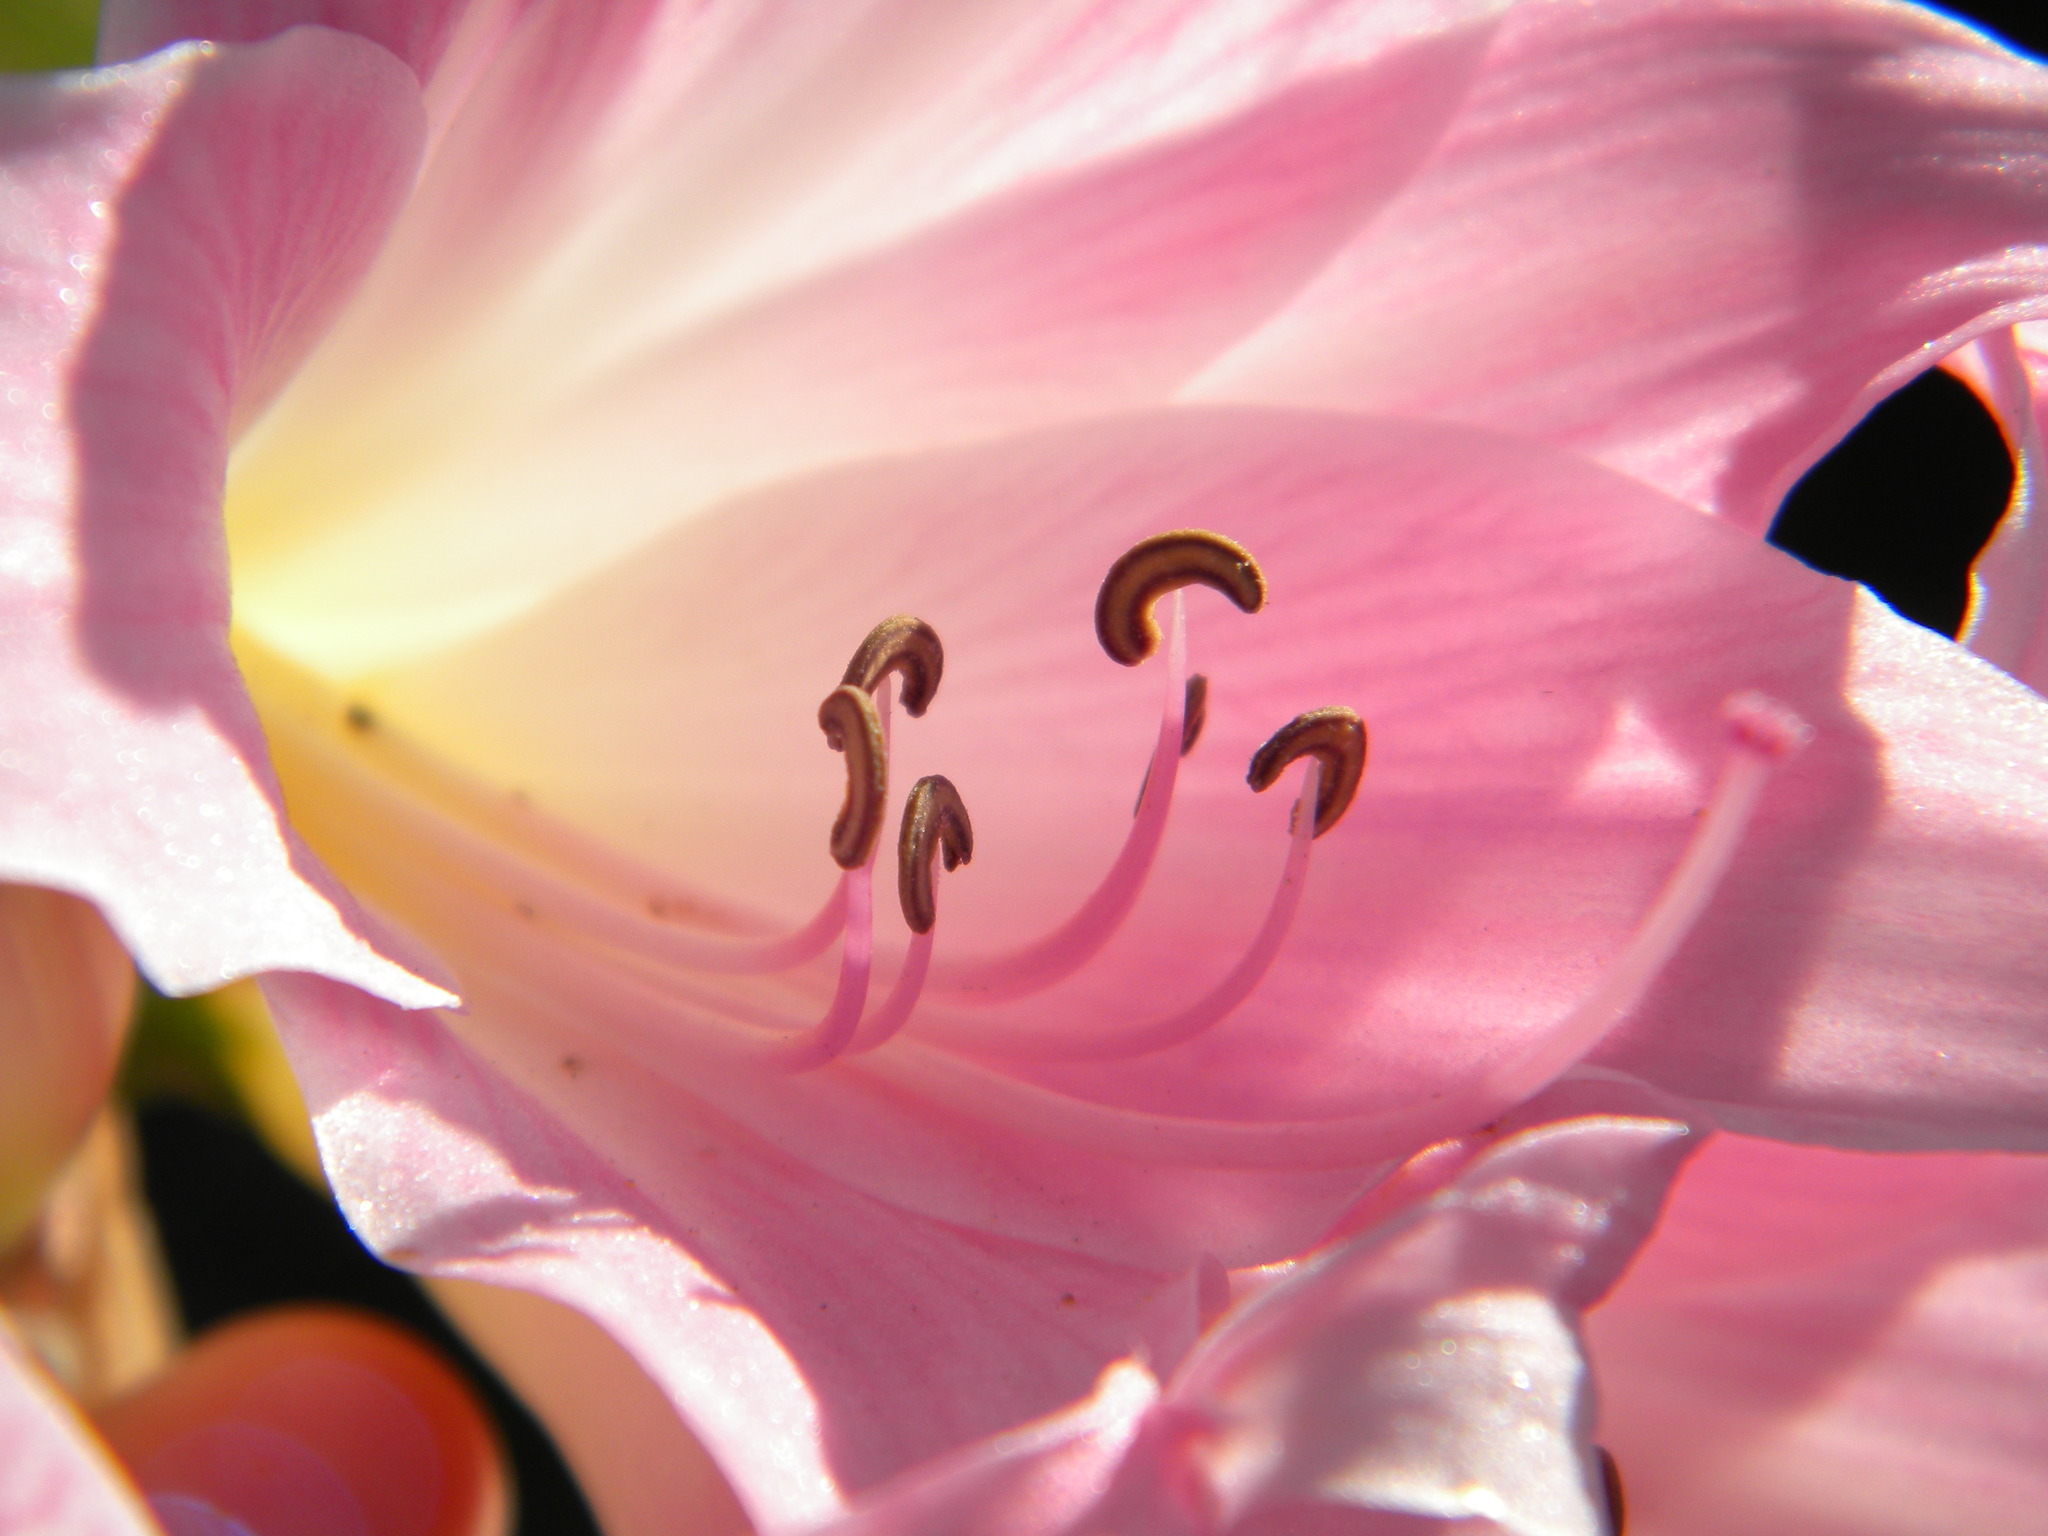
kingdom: Plantae
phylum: Tracheophyta
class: Liliopsida
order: Asparagales
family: Amaryllidaceae
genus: Amaryllis
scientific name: Amaryllis belladonna
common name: Jersey lily
